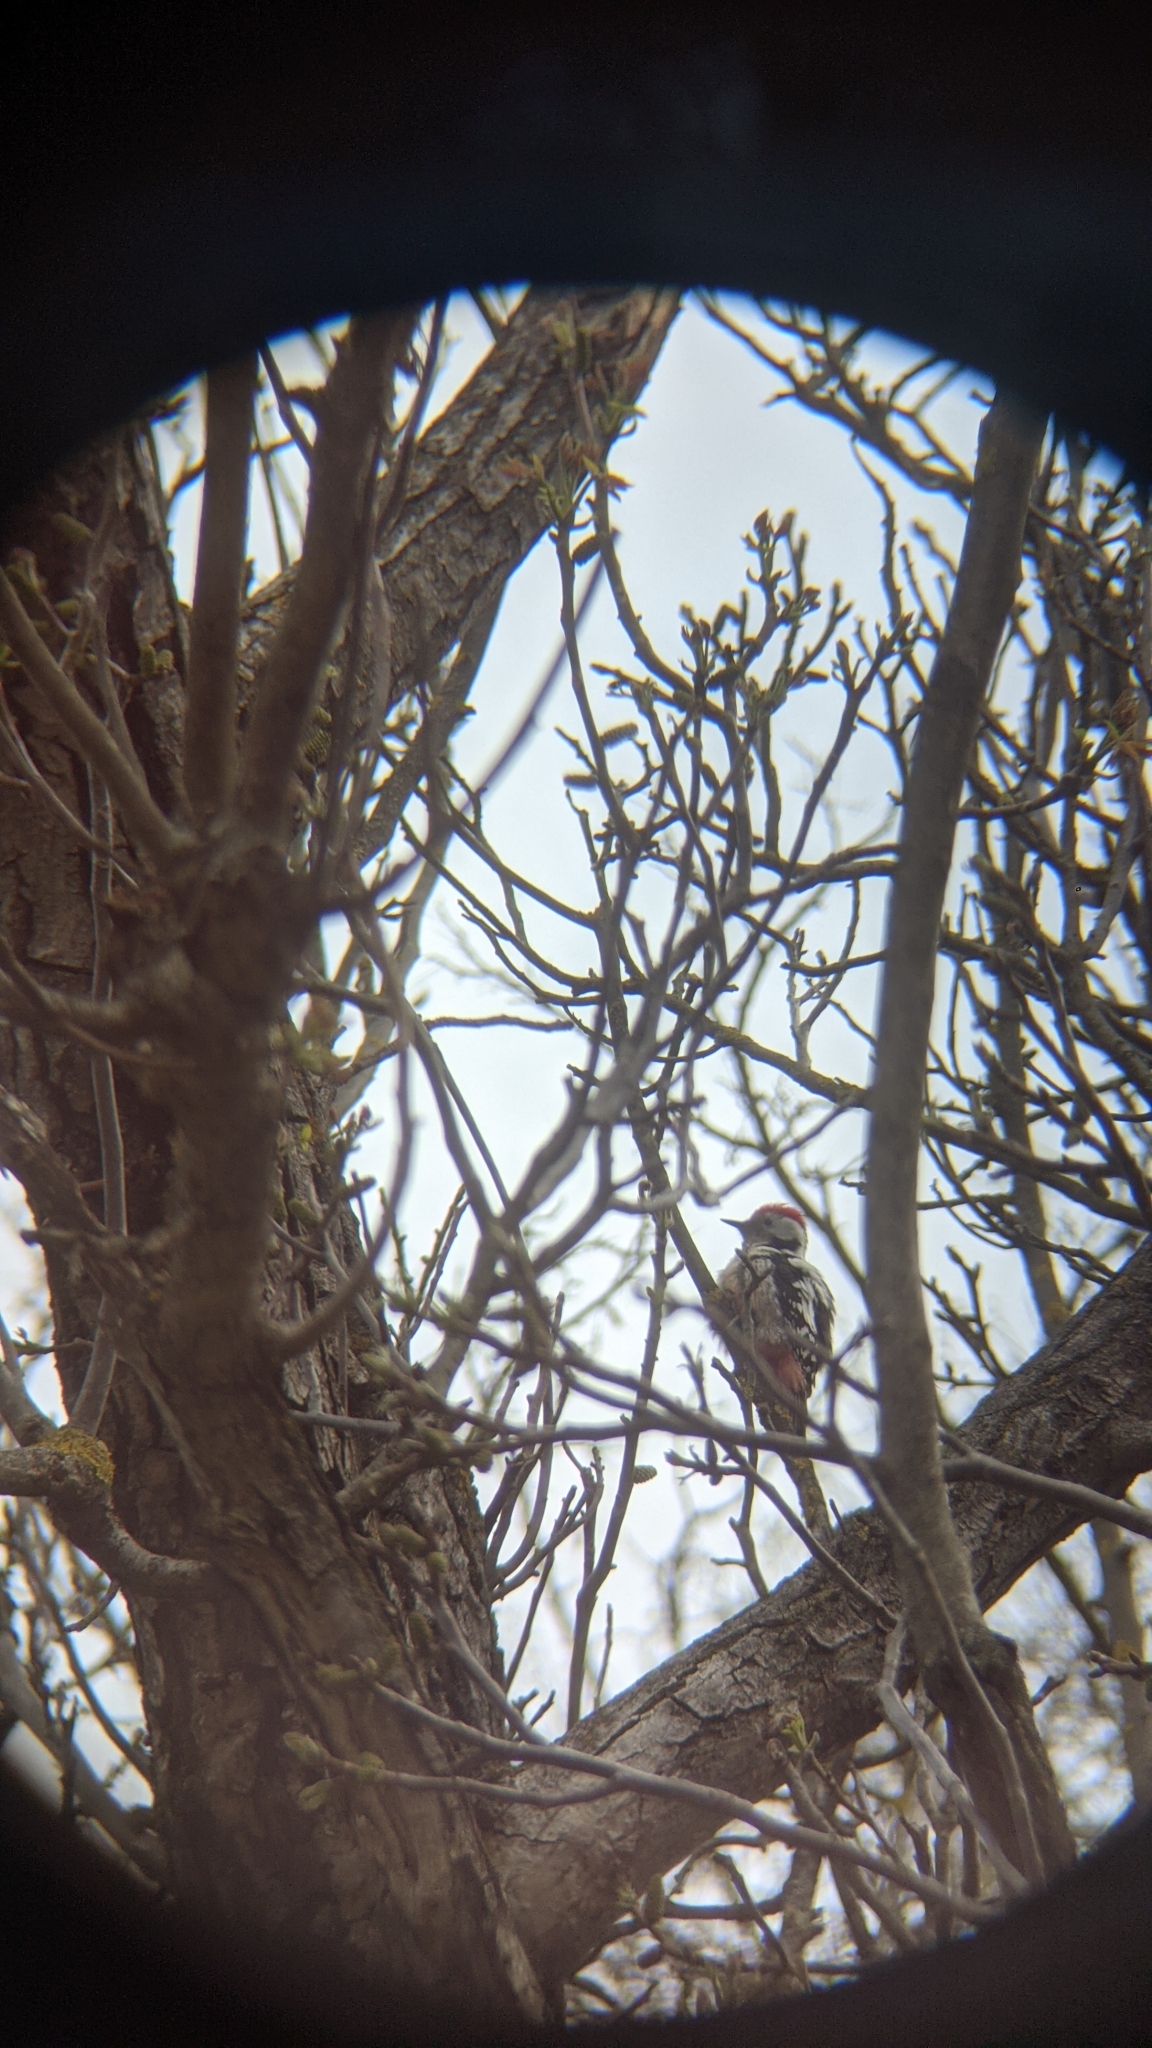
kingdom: Animalia
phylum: Chordata
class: Aves
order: Piciformes
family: Picidae
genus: Dendrocoptes
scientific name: Dendrocoptes medius
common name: Middle spotted woodpecker
